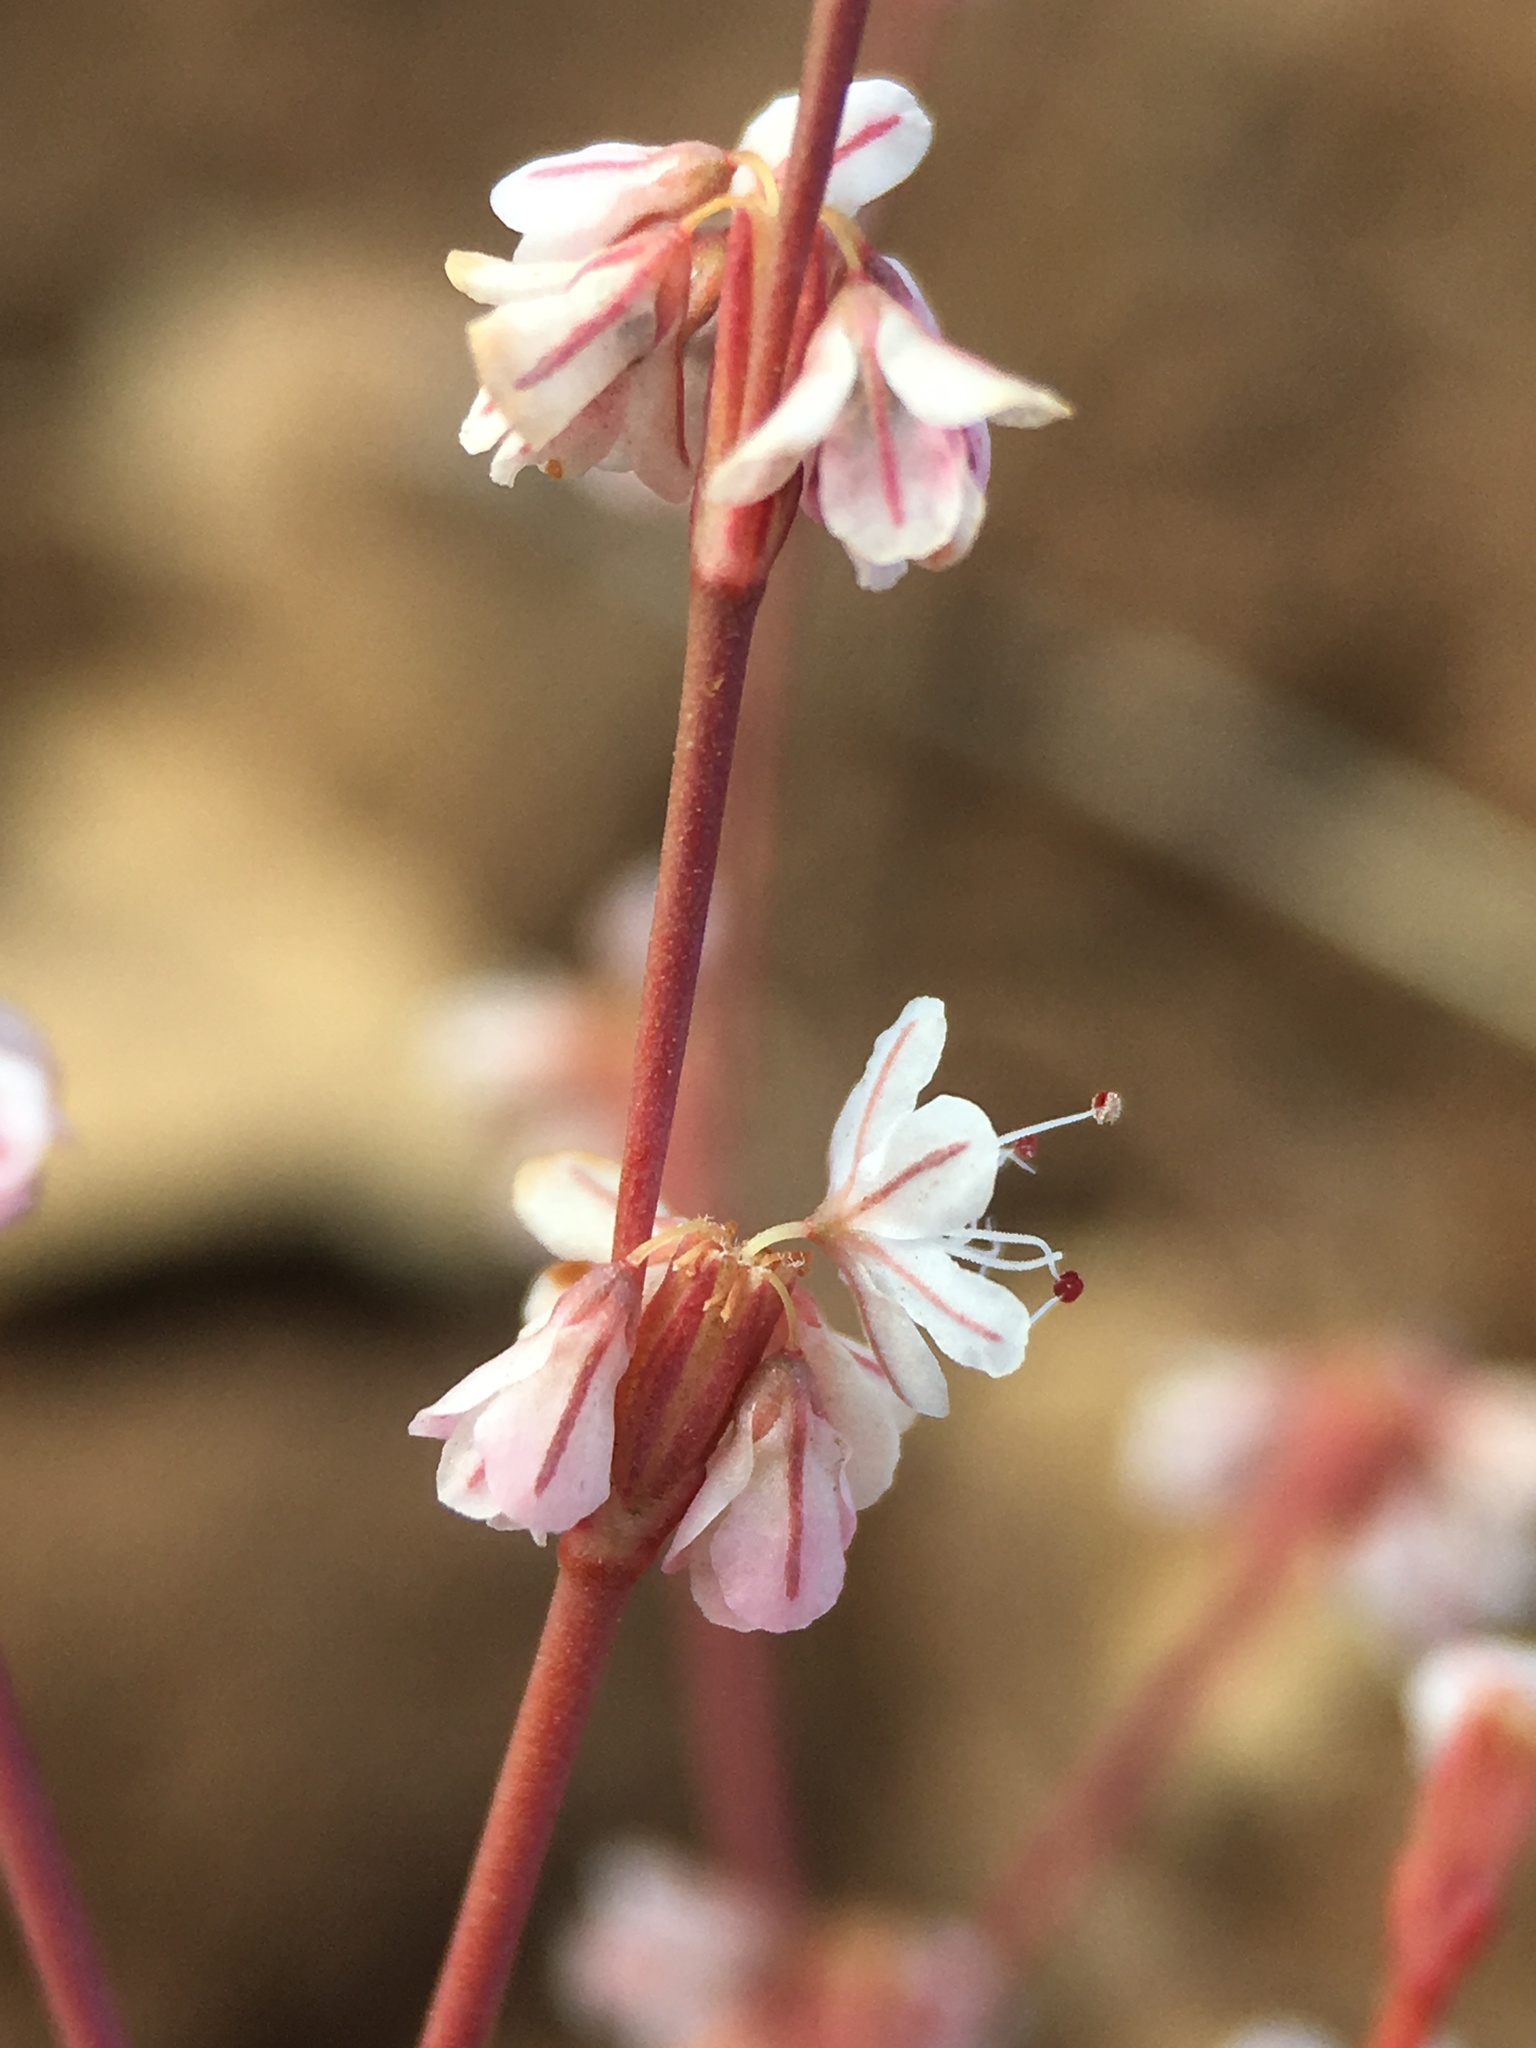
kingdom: Plantae
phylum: Tracheophyta
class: Magnoliopsida
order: Caryophyllales
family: Polygonaceae
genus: Eriogonum
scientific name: Eriogonum vimineum
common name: Wicker buckwheat
